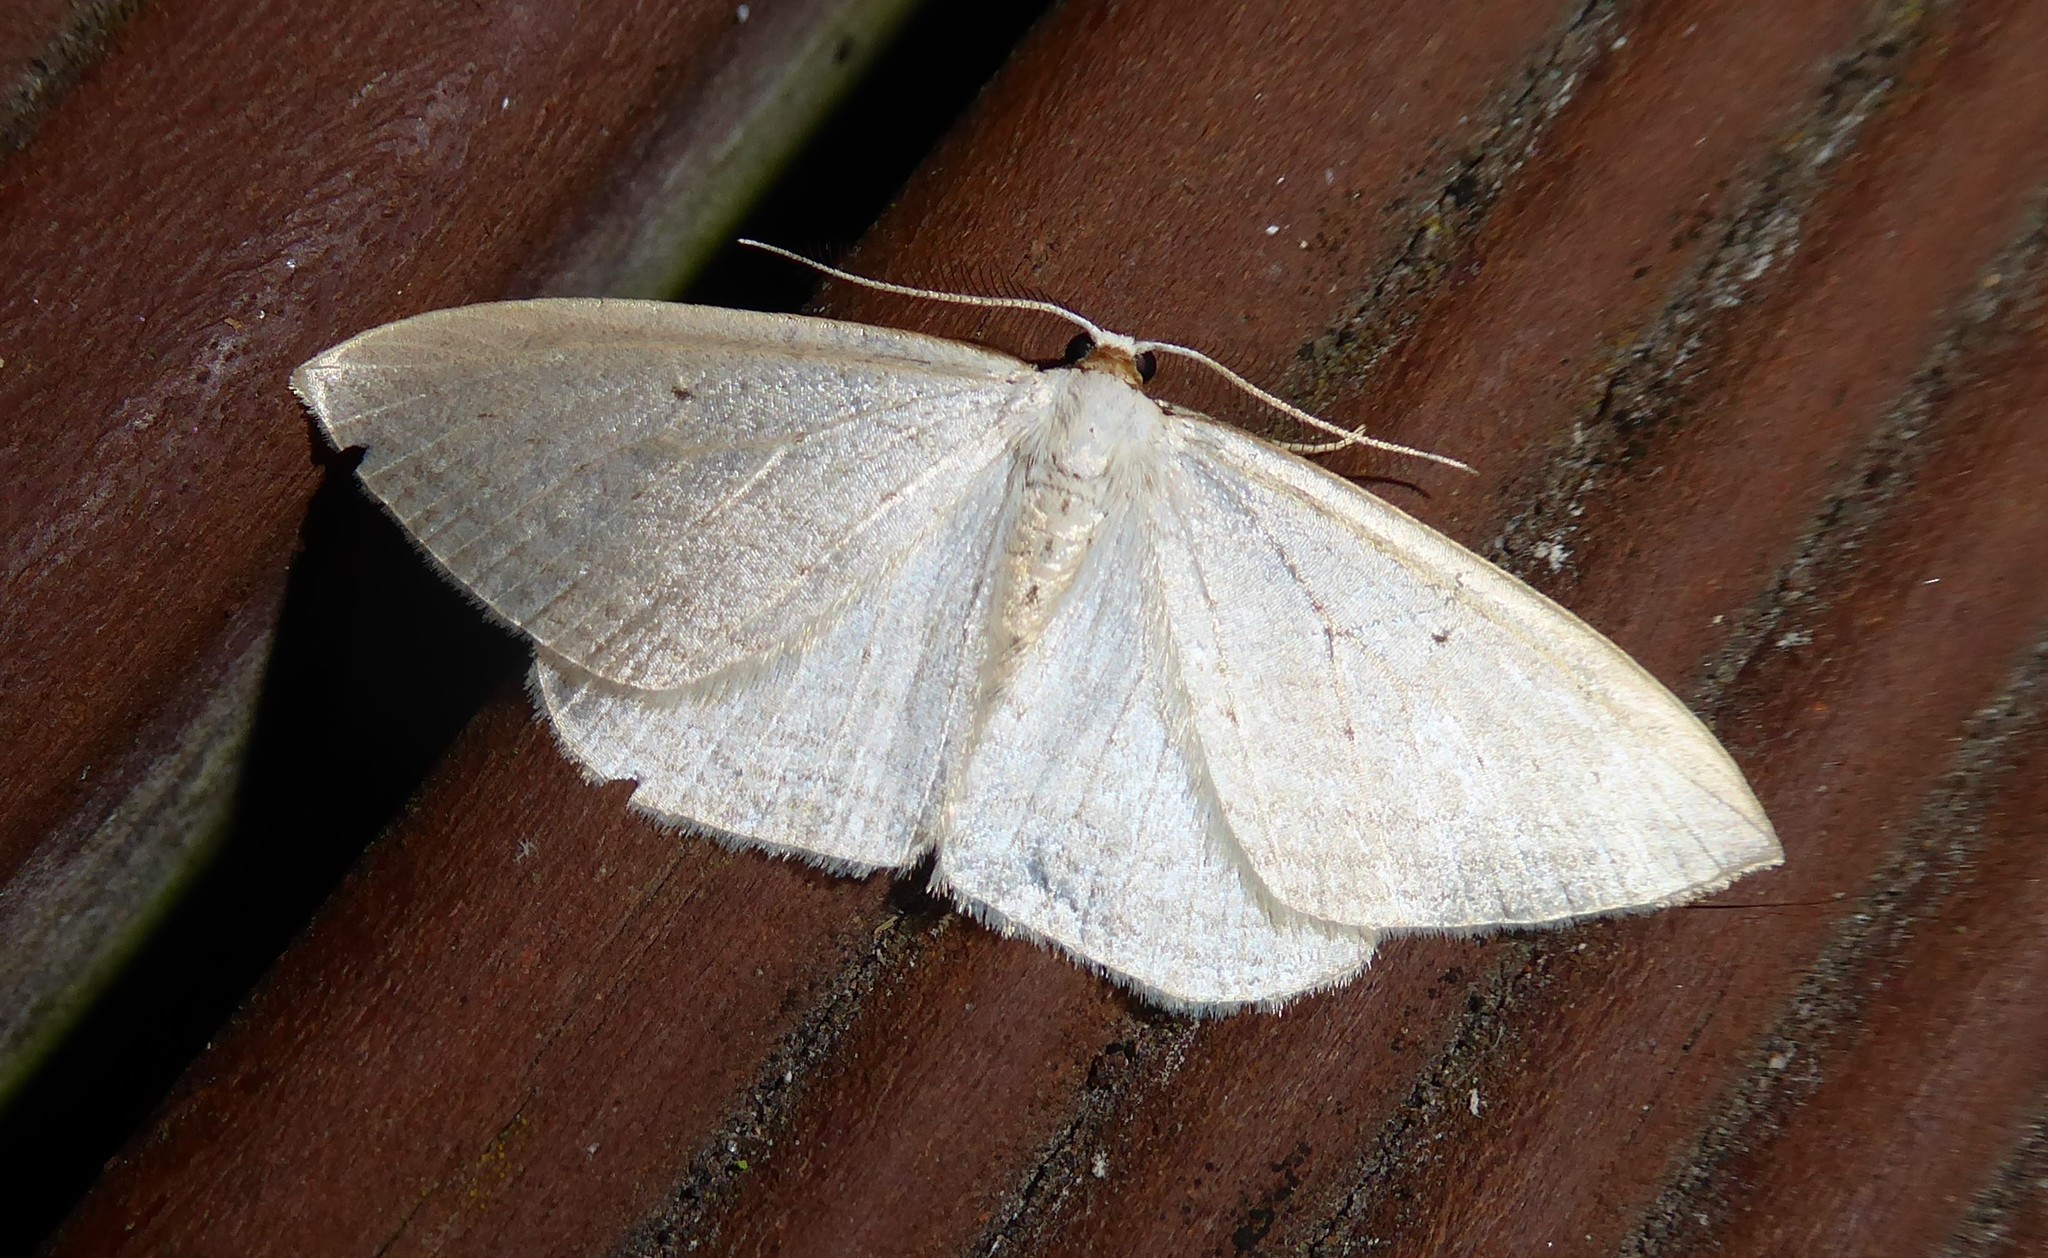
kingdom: Animalia
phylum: Arthropoda
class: Insecta
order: Lepidoptera
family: Geometridae
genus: Orthoclydon
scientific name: Orthoclydon praefectata
